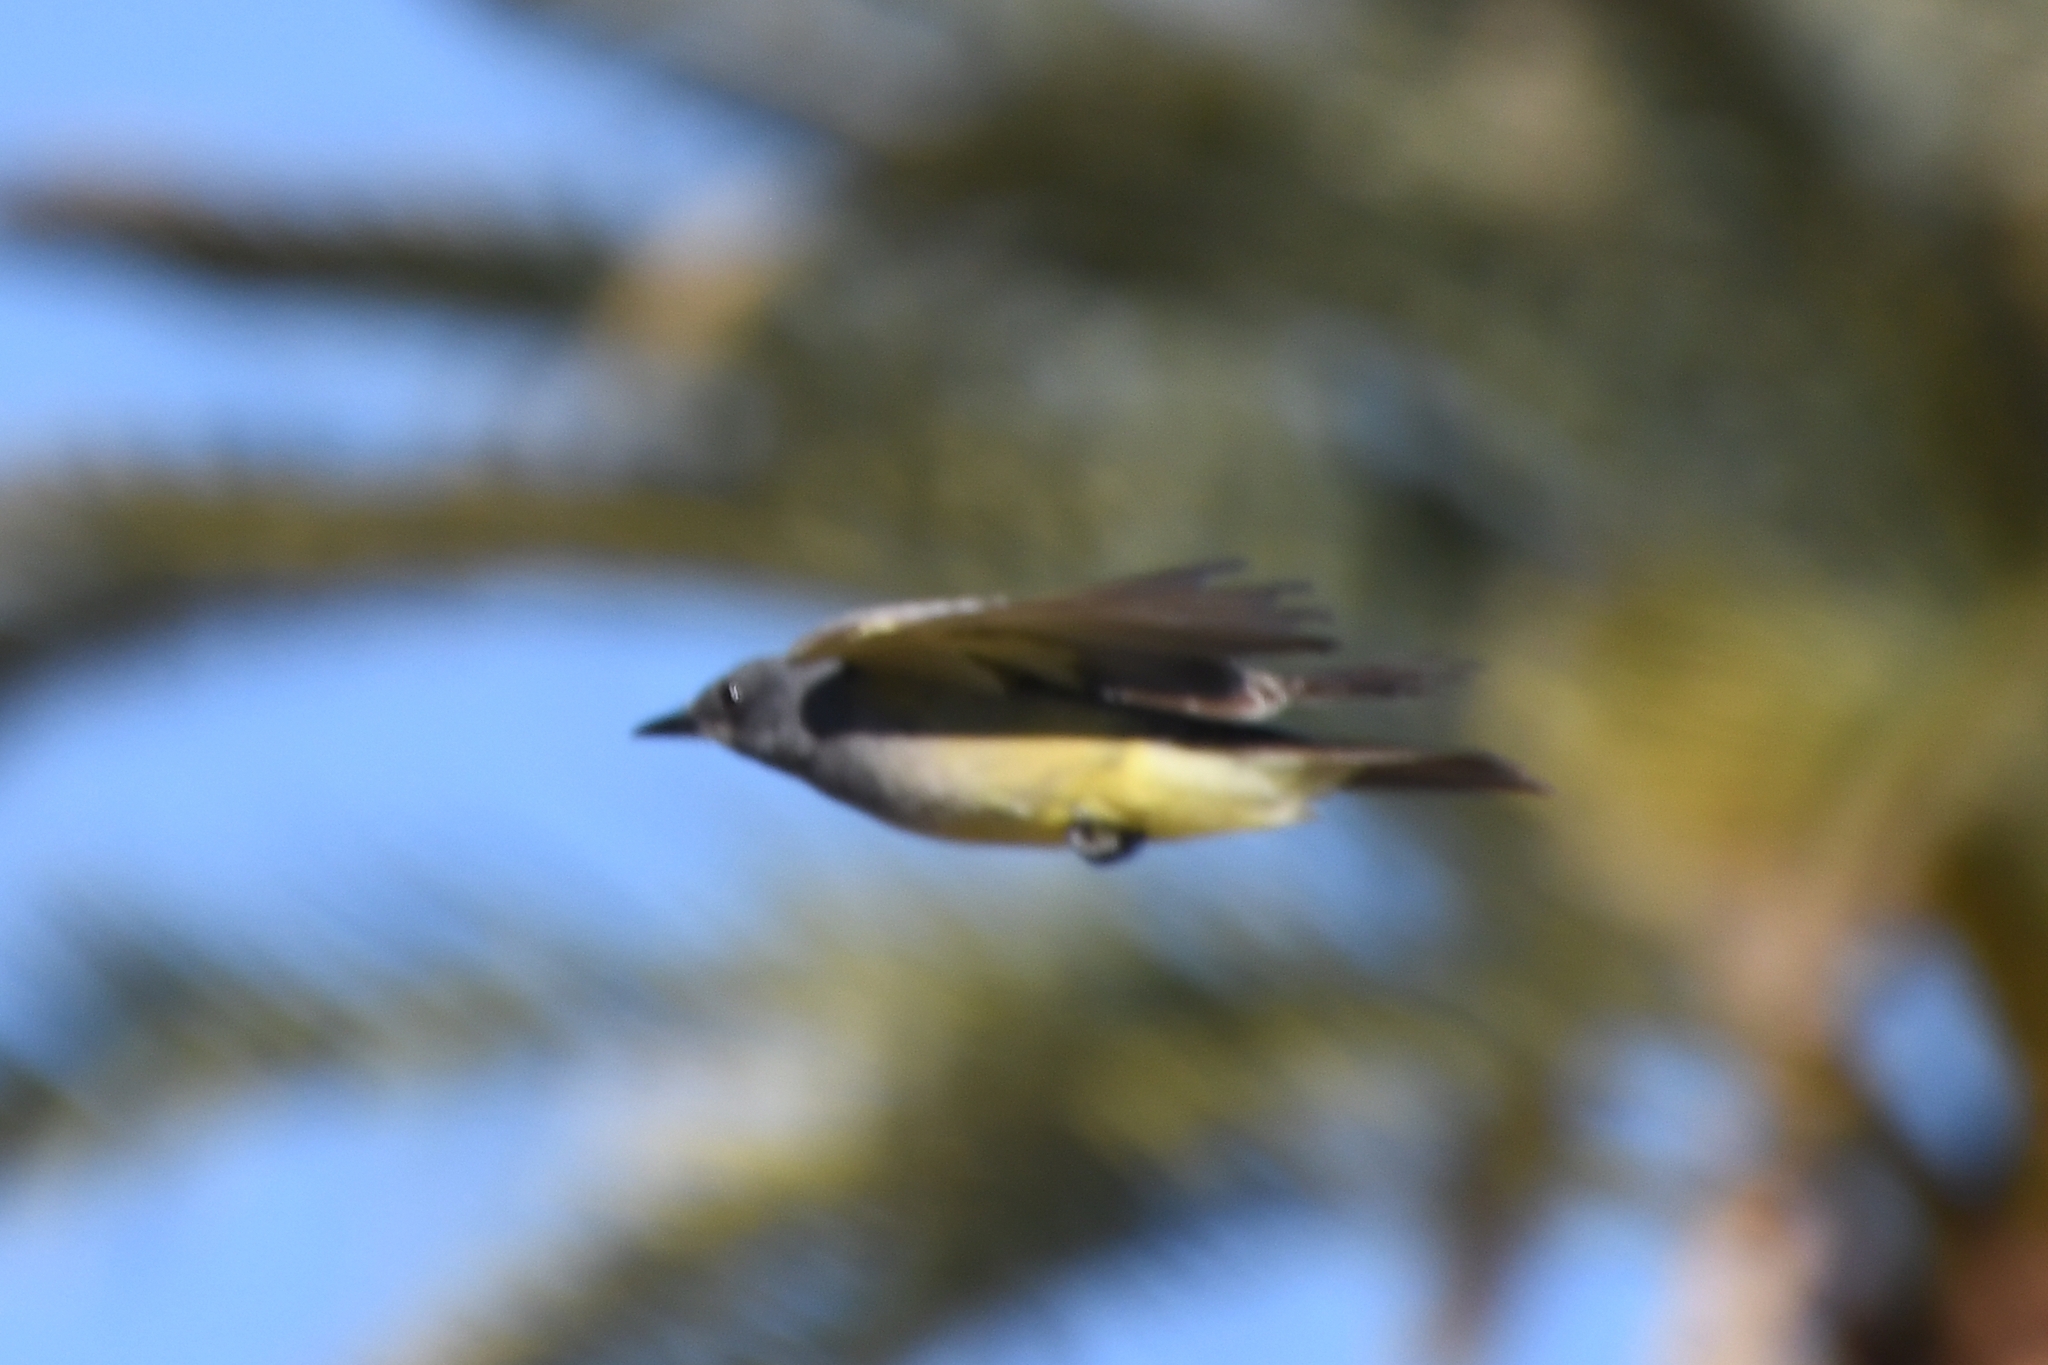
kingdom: Animalia
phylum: Chordata
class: Aves
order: Passeriformes
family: Tyrannidae
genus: Tyrannus
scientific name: Tyrannus vociferans
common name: Cassin's kingbird
